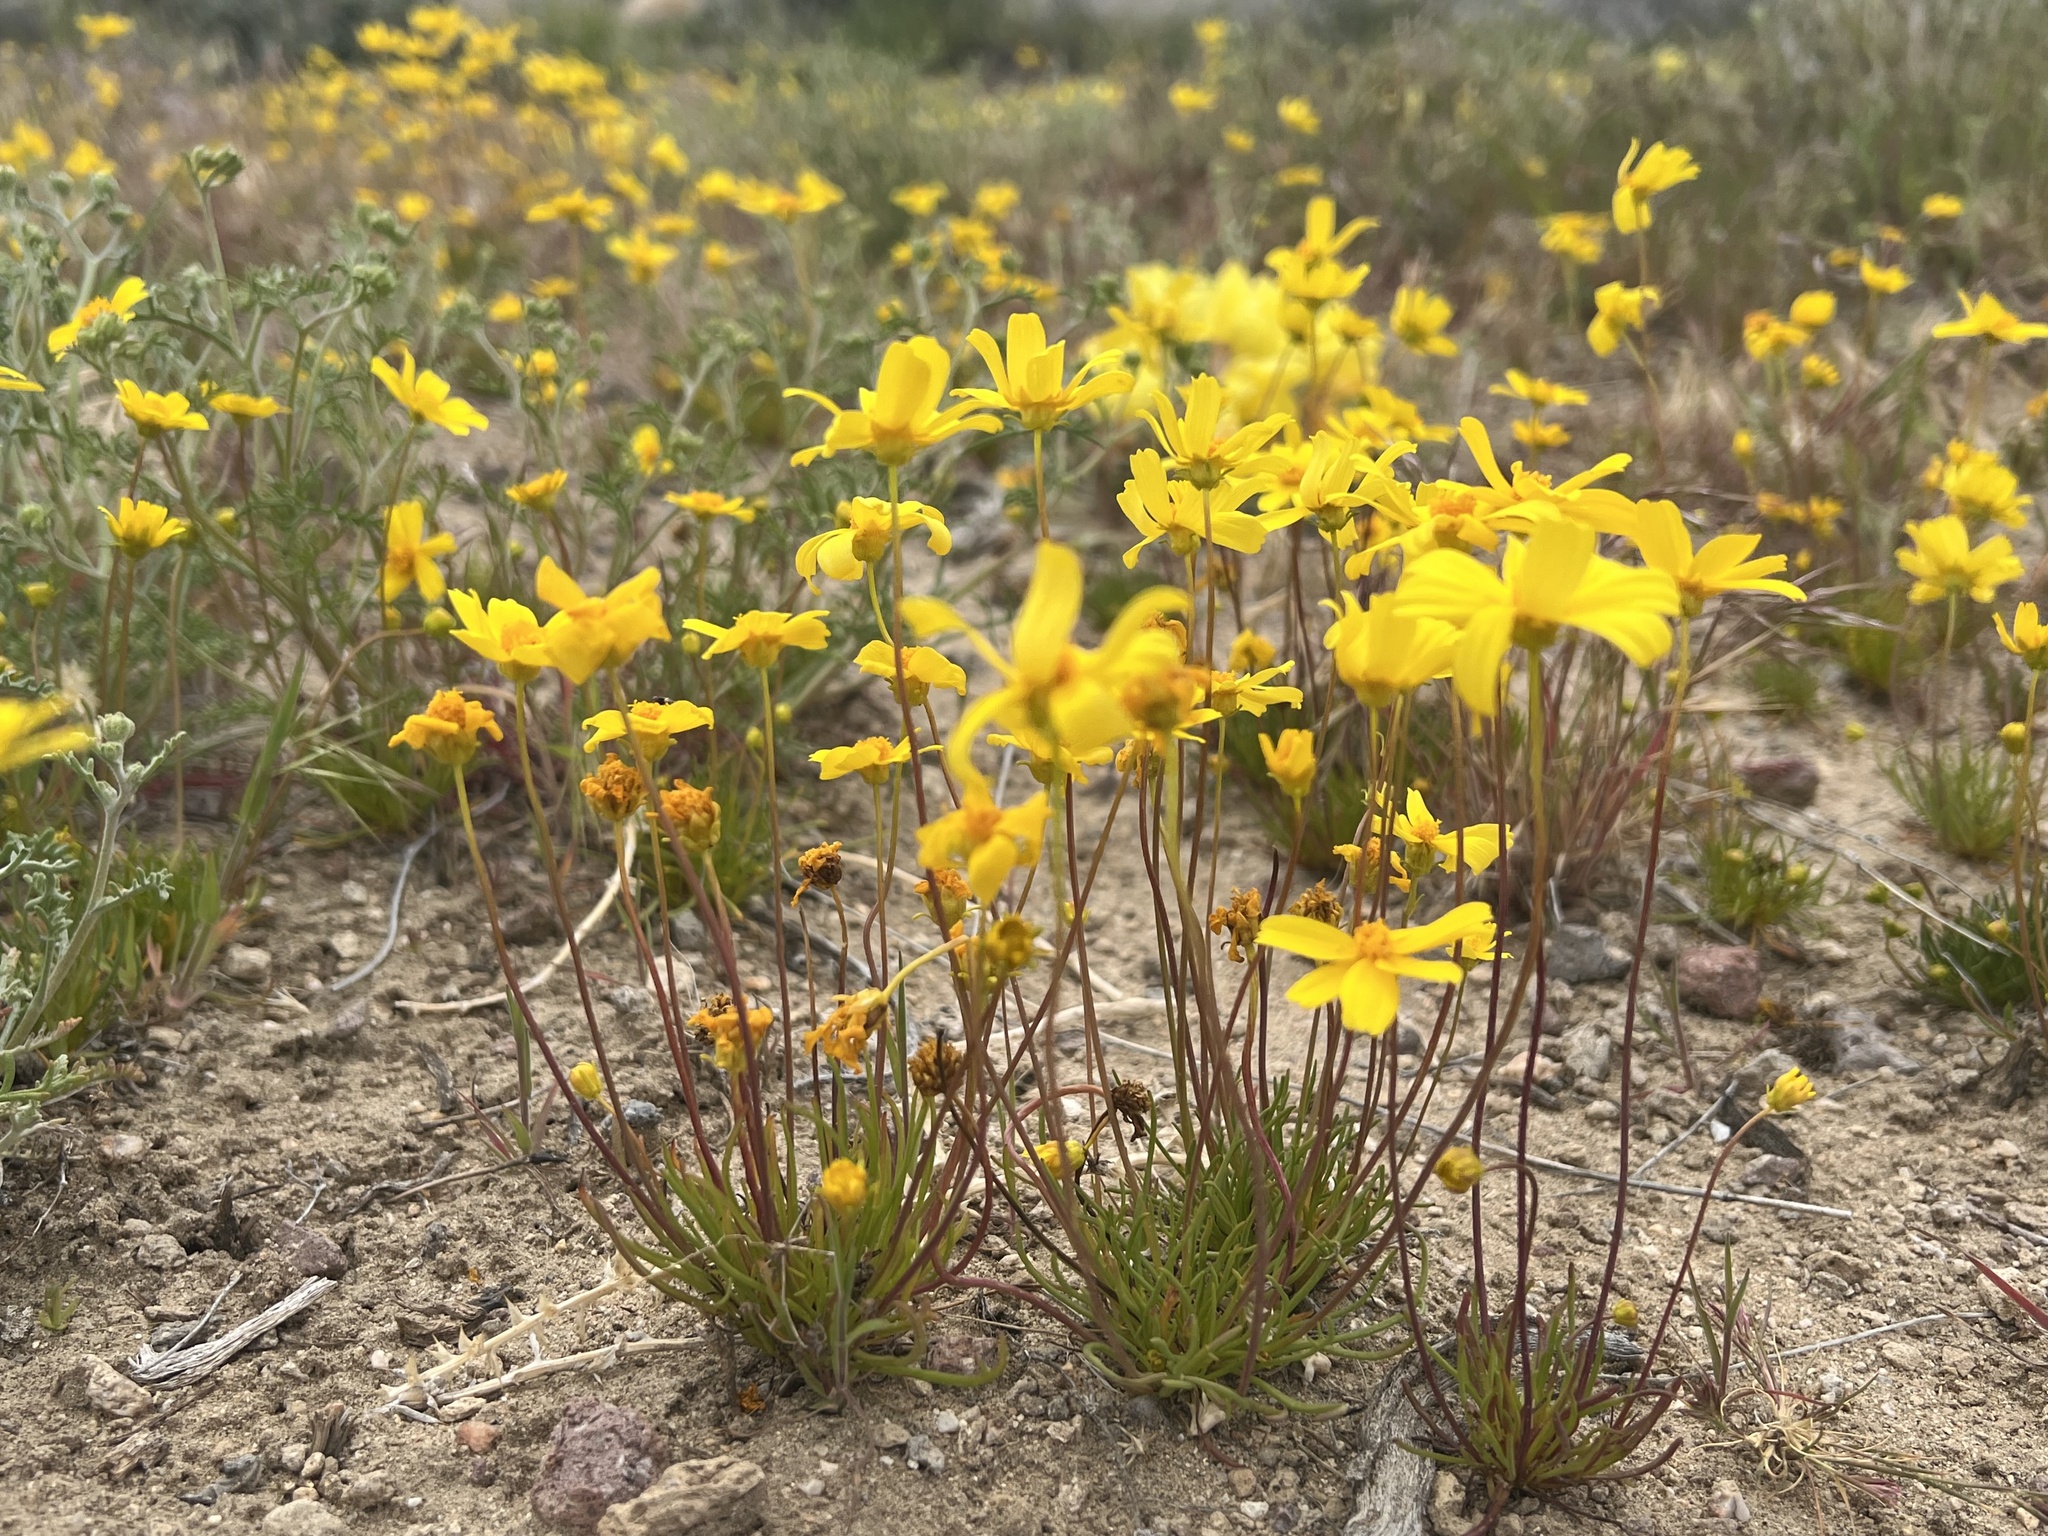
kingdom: Plantae
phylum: Tracheophyta
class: Magnoliopsida
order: Asterales
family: Asteraceae
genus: Coreopsis
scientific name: Coreopsis californica
